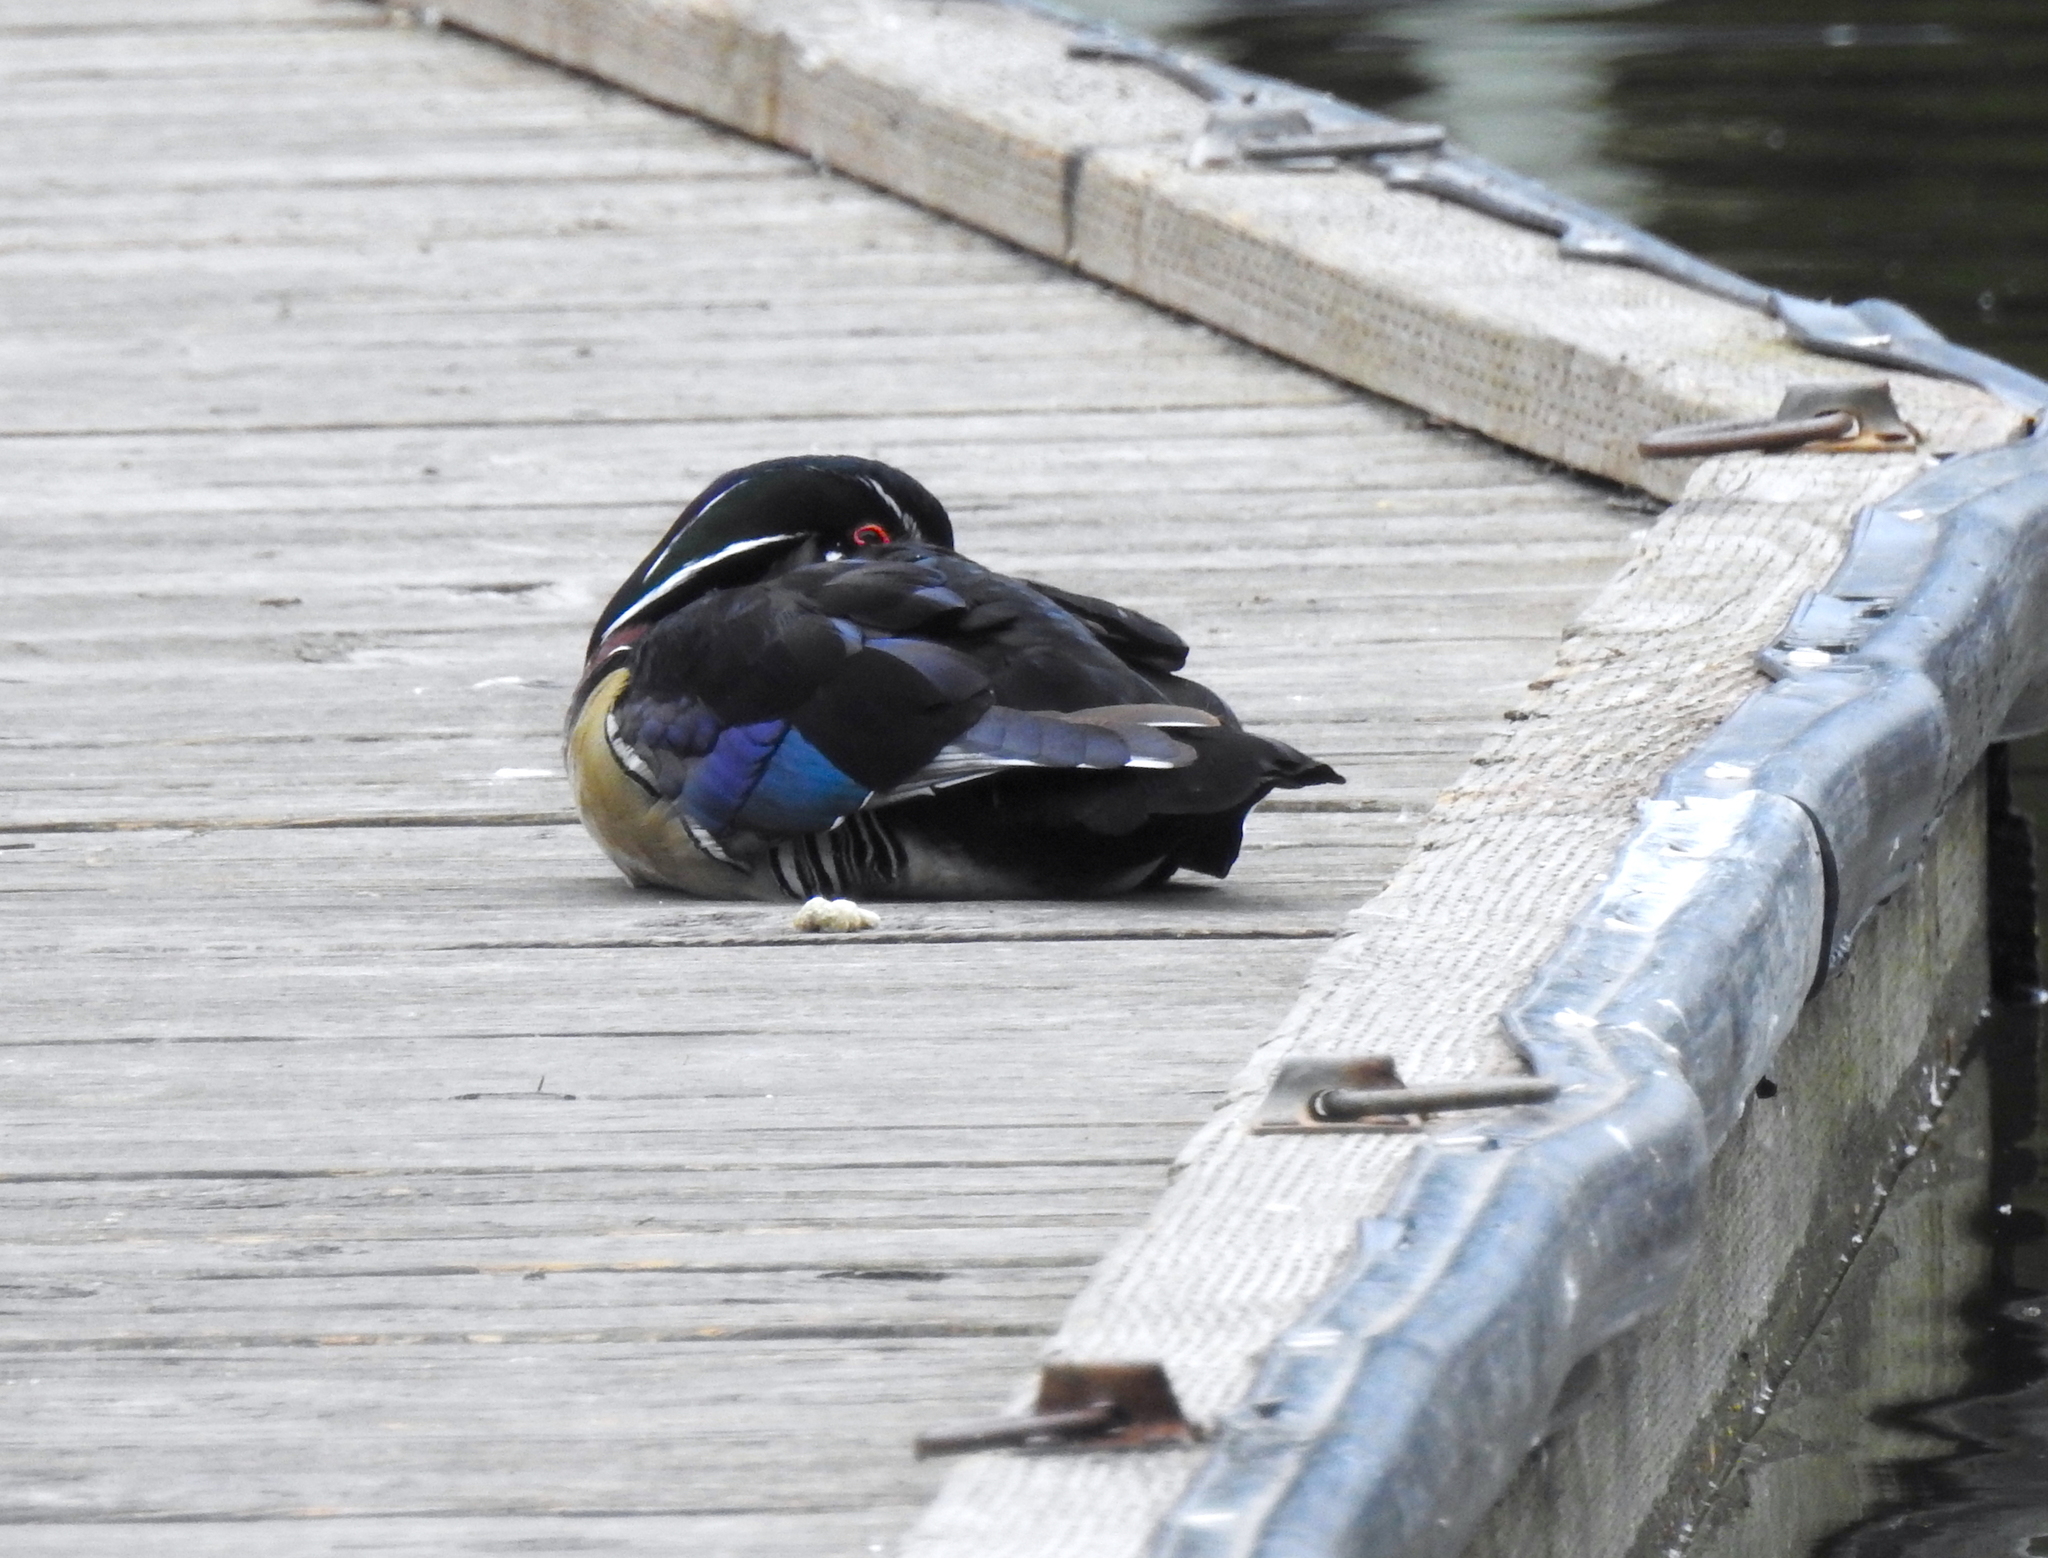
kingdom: Animalia
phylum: Chordata
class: Aves
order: Anseriformes
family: Anatidae
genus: Aix
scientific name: Aix sponsa
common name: Wood duck
